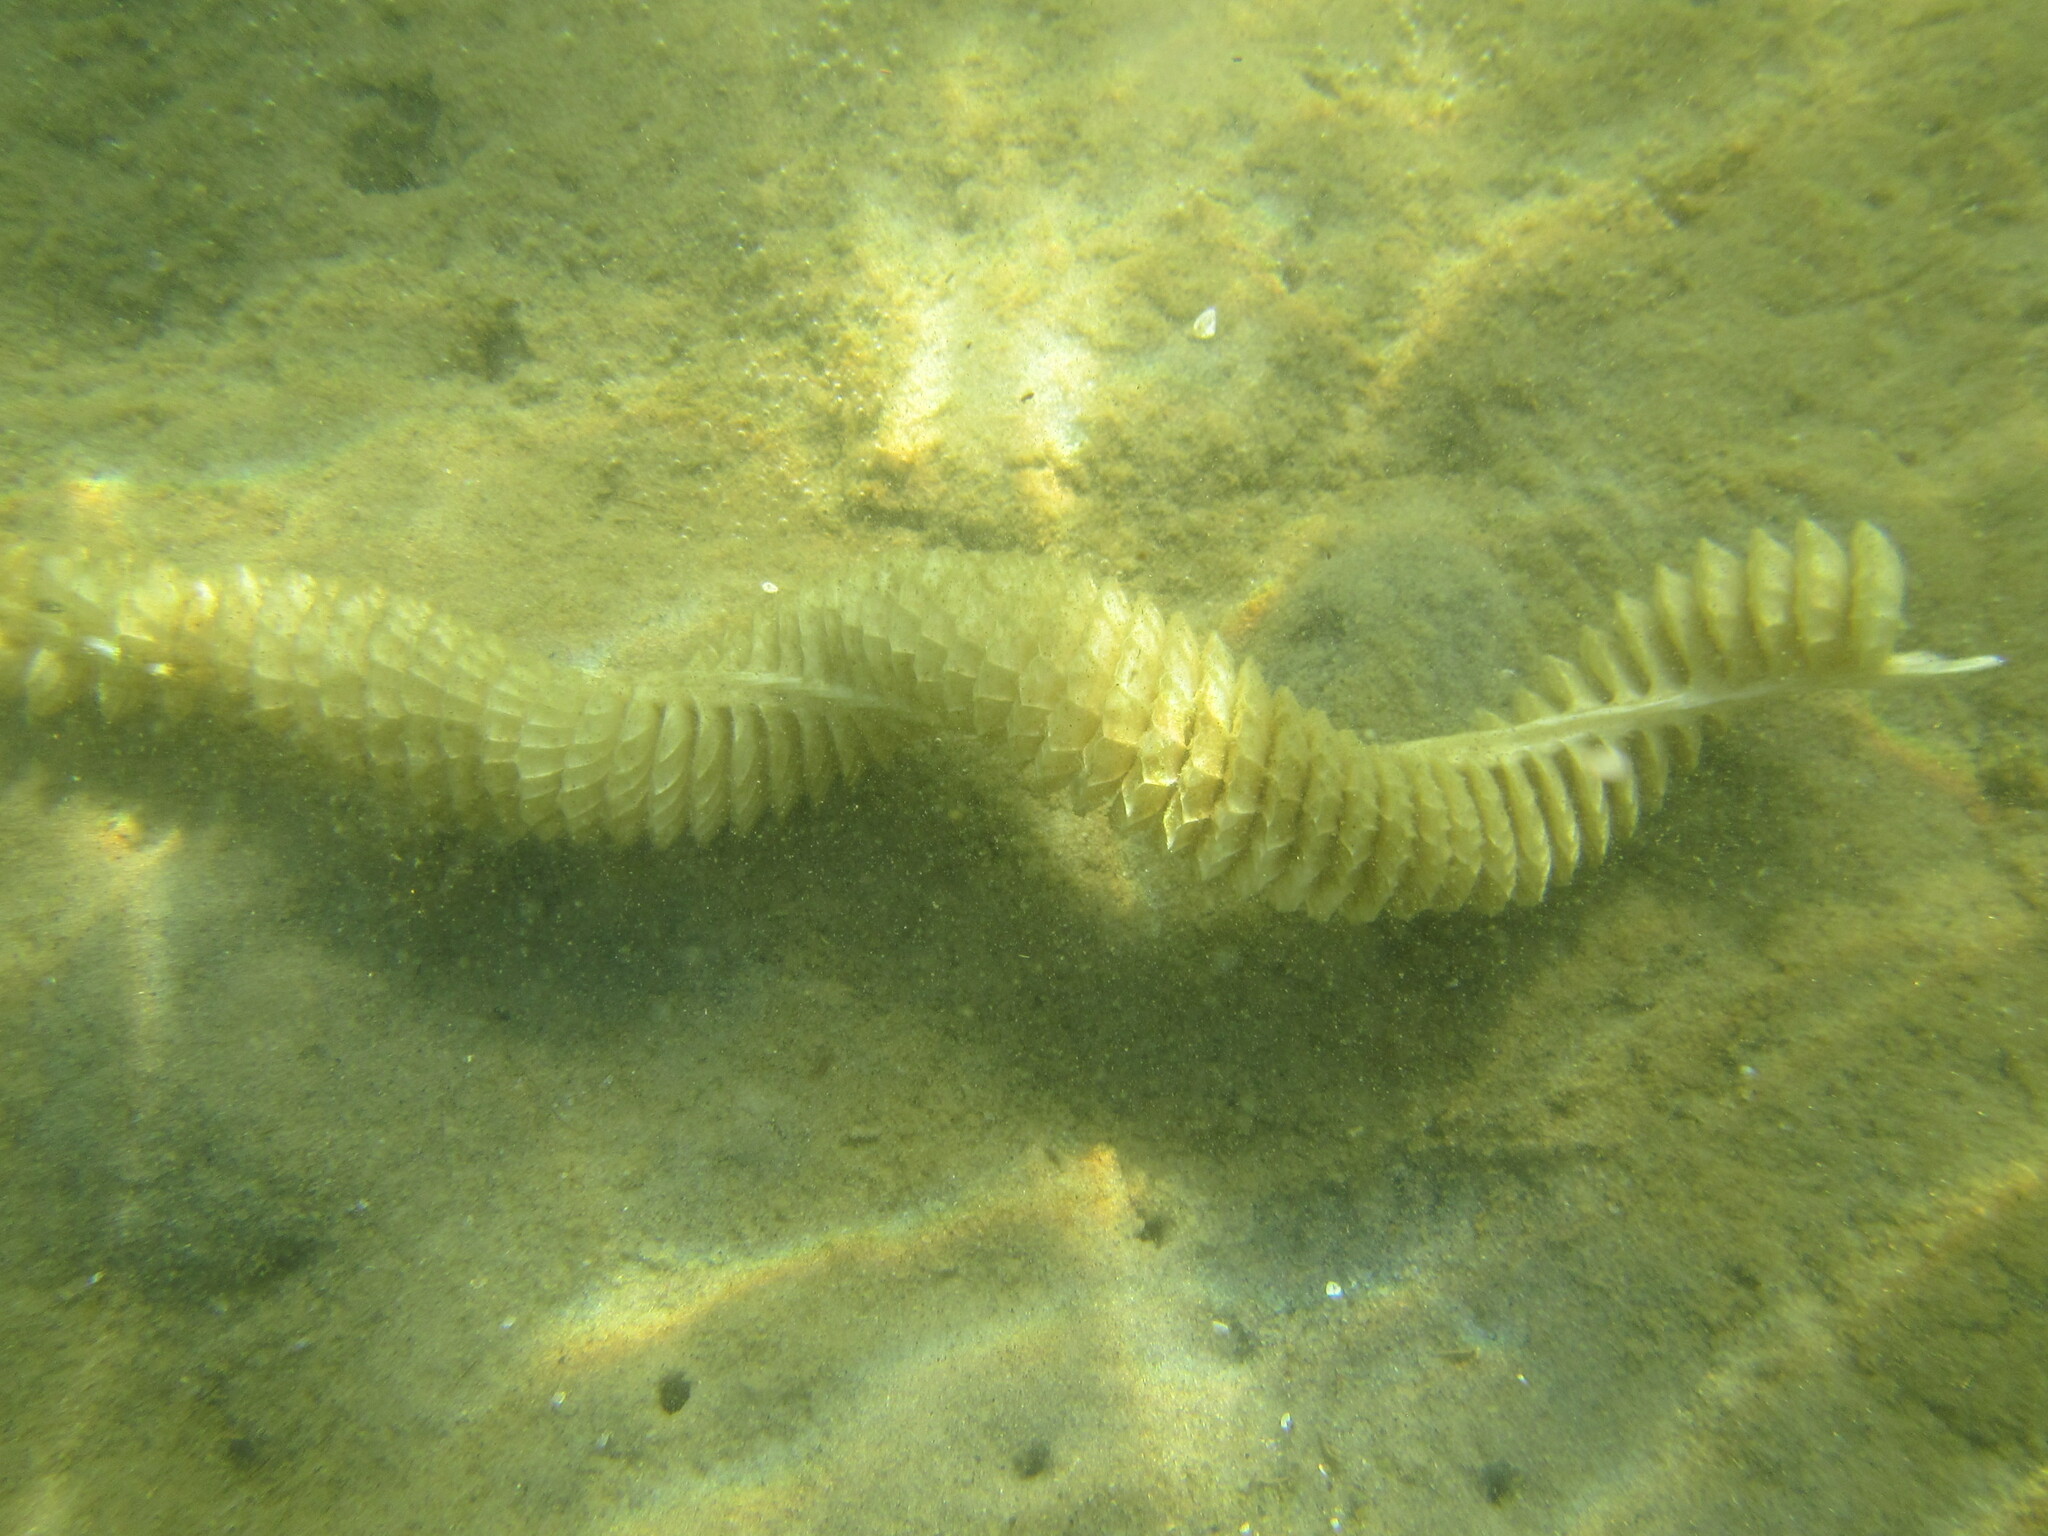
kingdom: Animalia
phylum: Mollusca
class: Gastropoda
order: Neogastropoda
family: Busyconidae
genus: Busycotypus
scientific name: Busycotypus canaliculatus
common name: Channeled whelk
